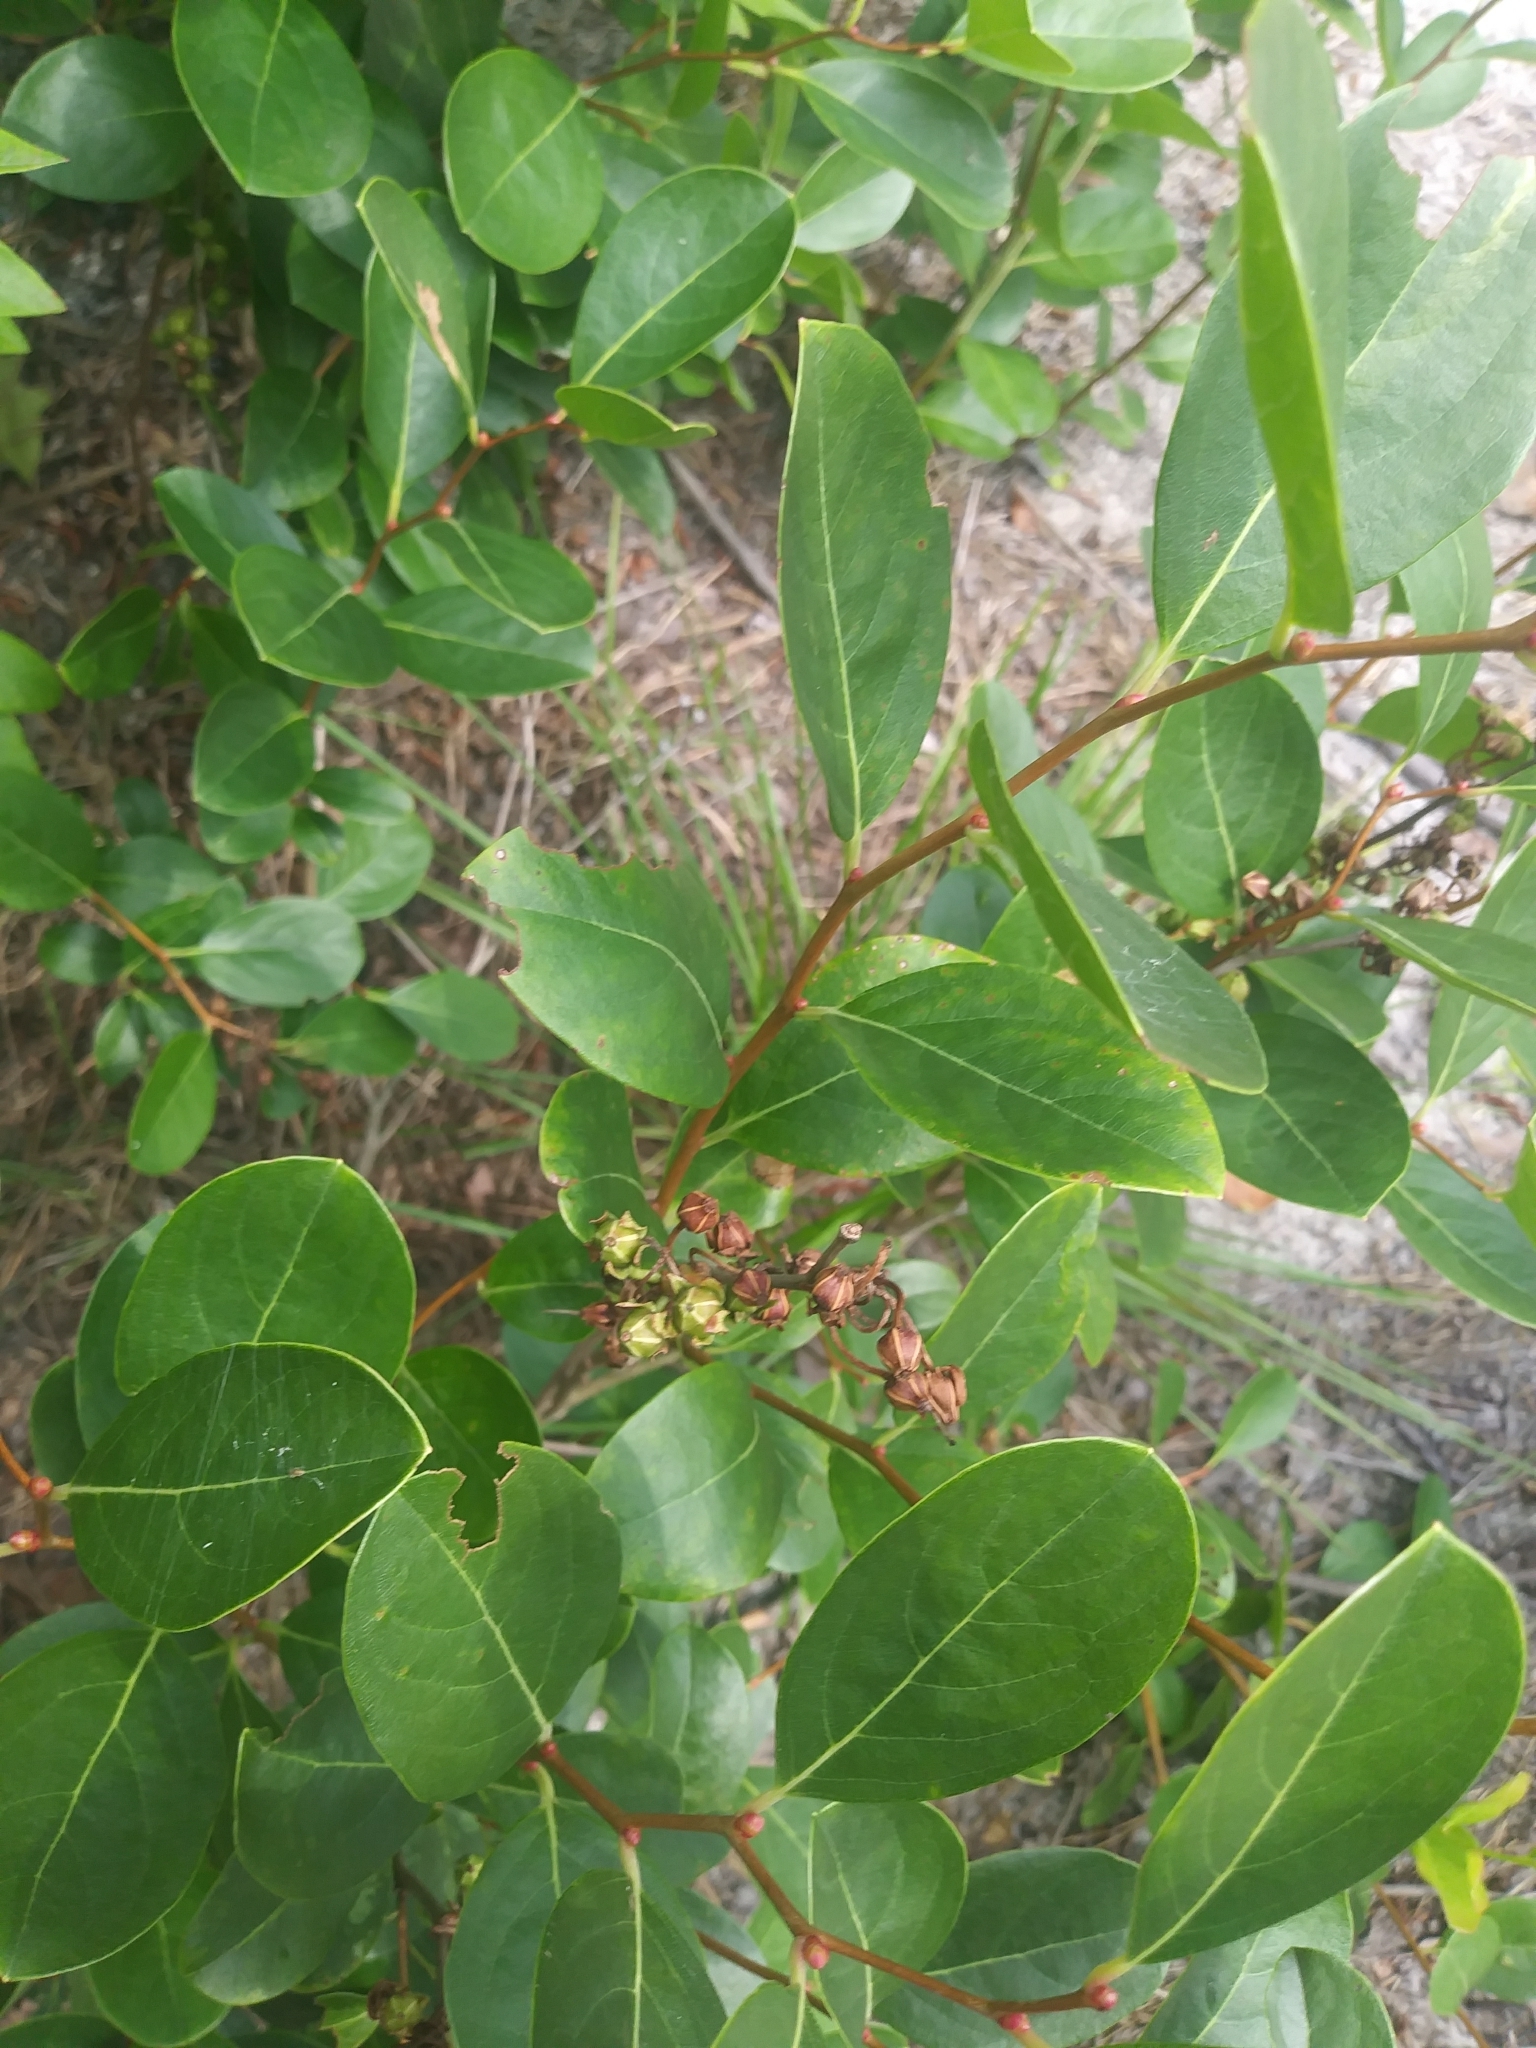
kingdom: Plantae
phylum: Tracheophyta
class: Magnoliopsida
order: Ericales
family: Ericaceae
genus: Lyonia
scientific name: Lyonia mariana
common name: Staggerbush
